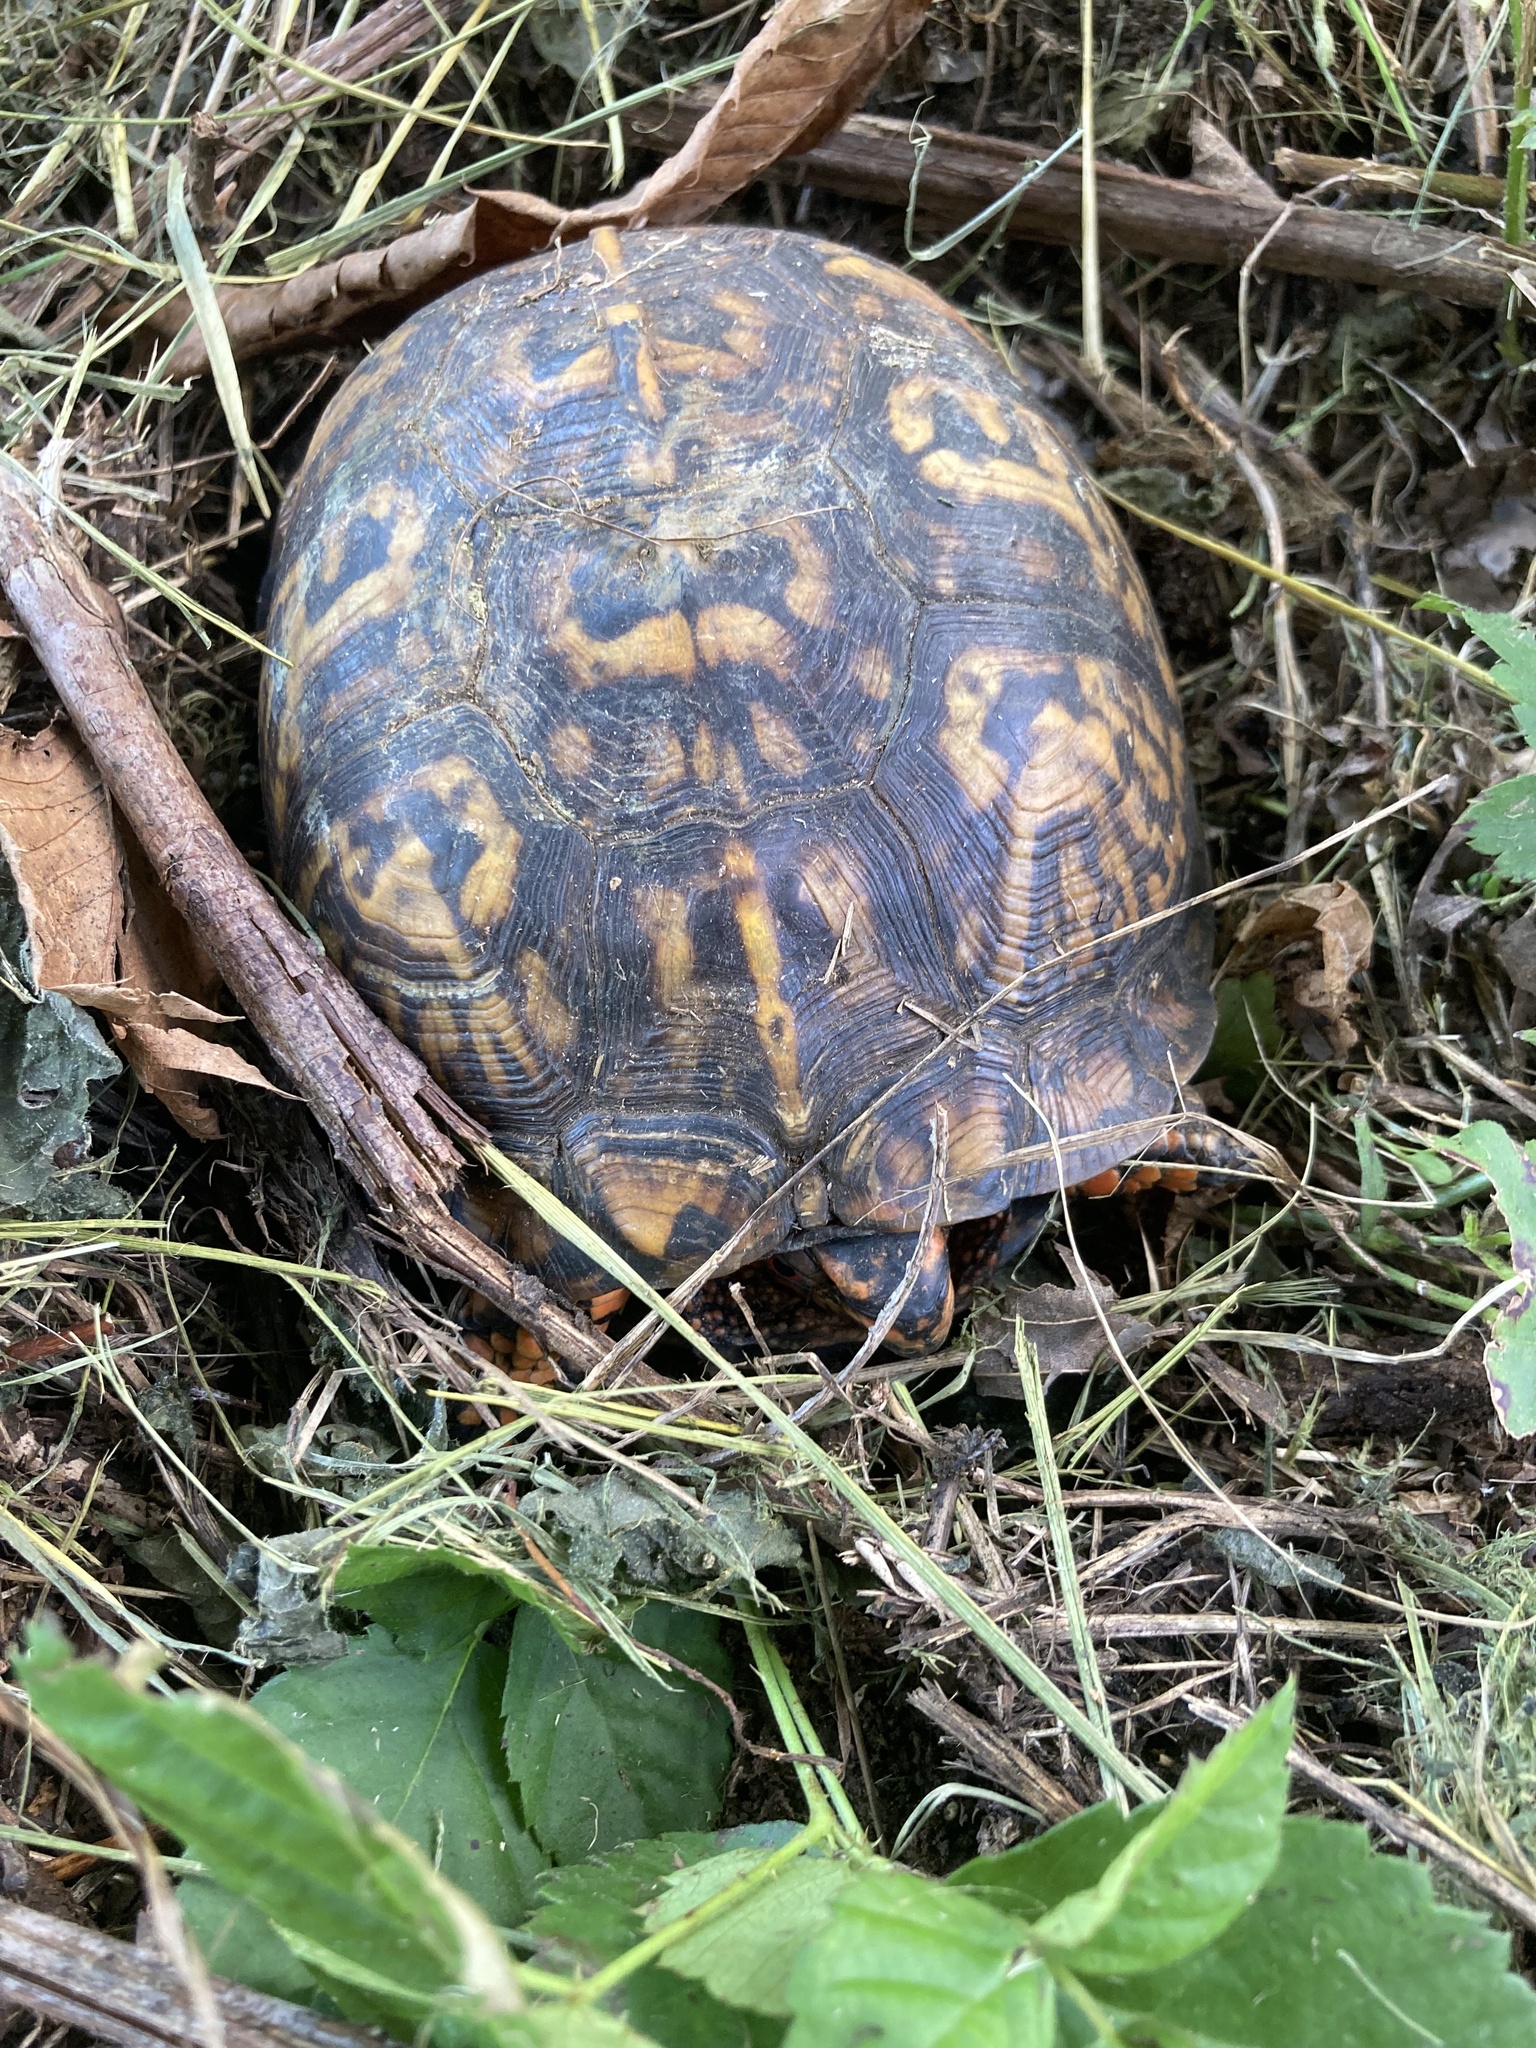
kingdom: Animalia
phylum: Chordata
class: Testudines
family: Emydidae
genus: Terrapene
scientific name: Terrapene carolina
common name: Common box turtle
